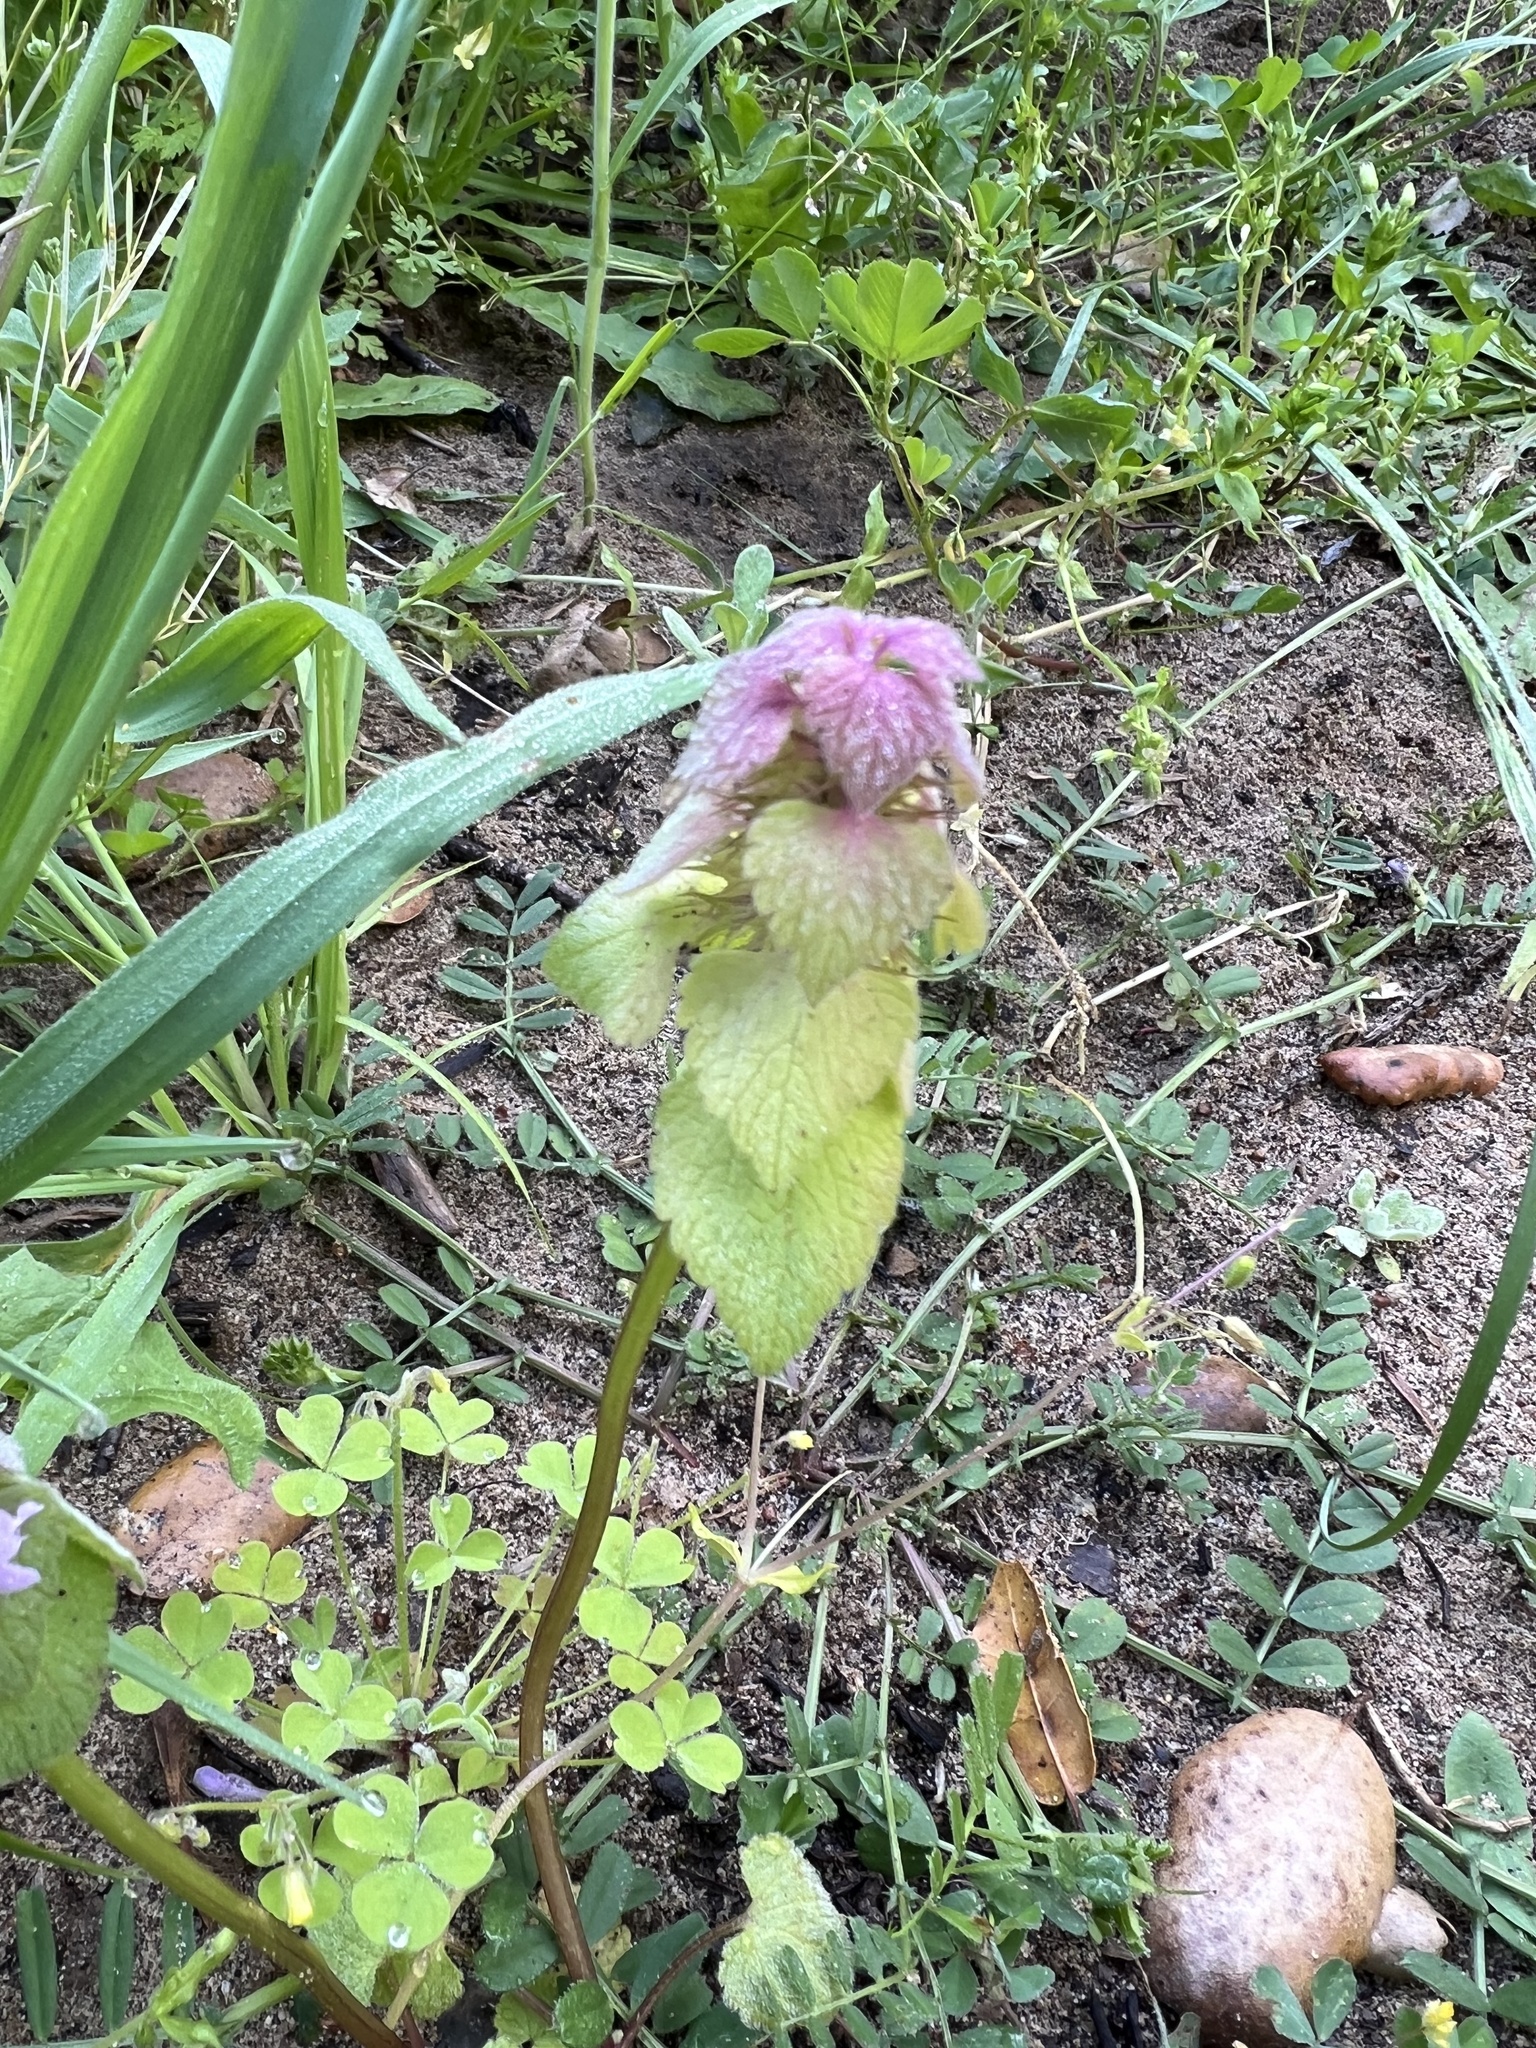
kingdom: Plantae
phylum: Tracheophyta
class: Magnoliopsida
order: Lamiales
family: Lamiaceae
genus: Lamium
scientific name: Lamium purpureum
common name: Red dead-nettle
